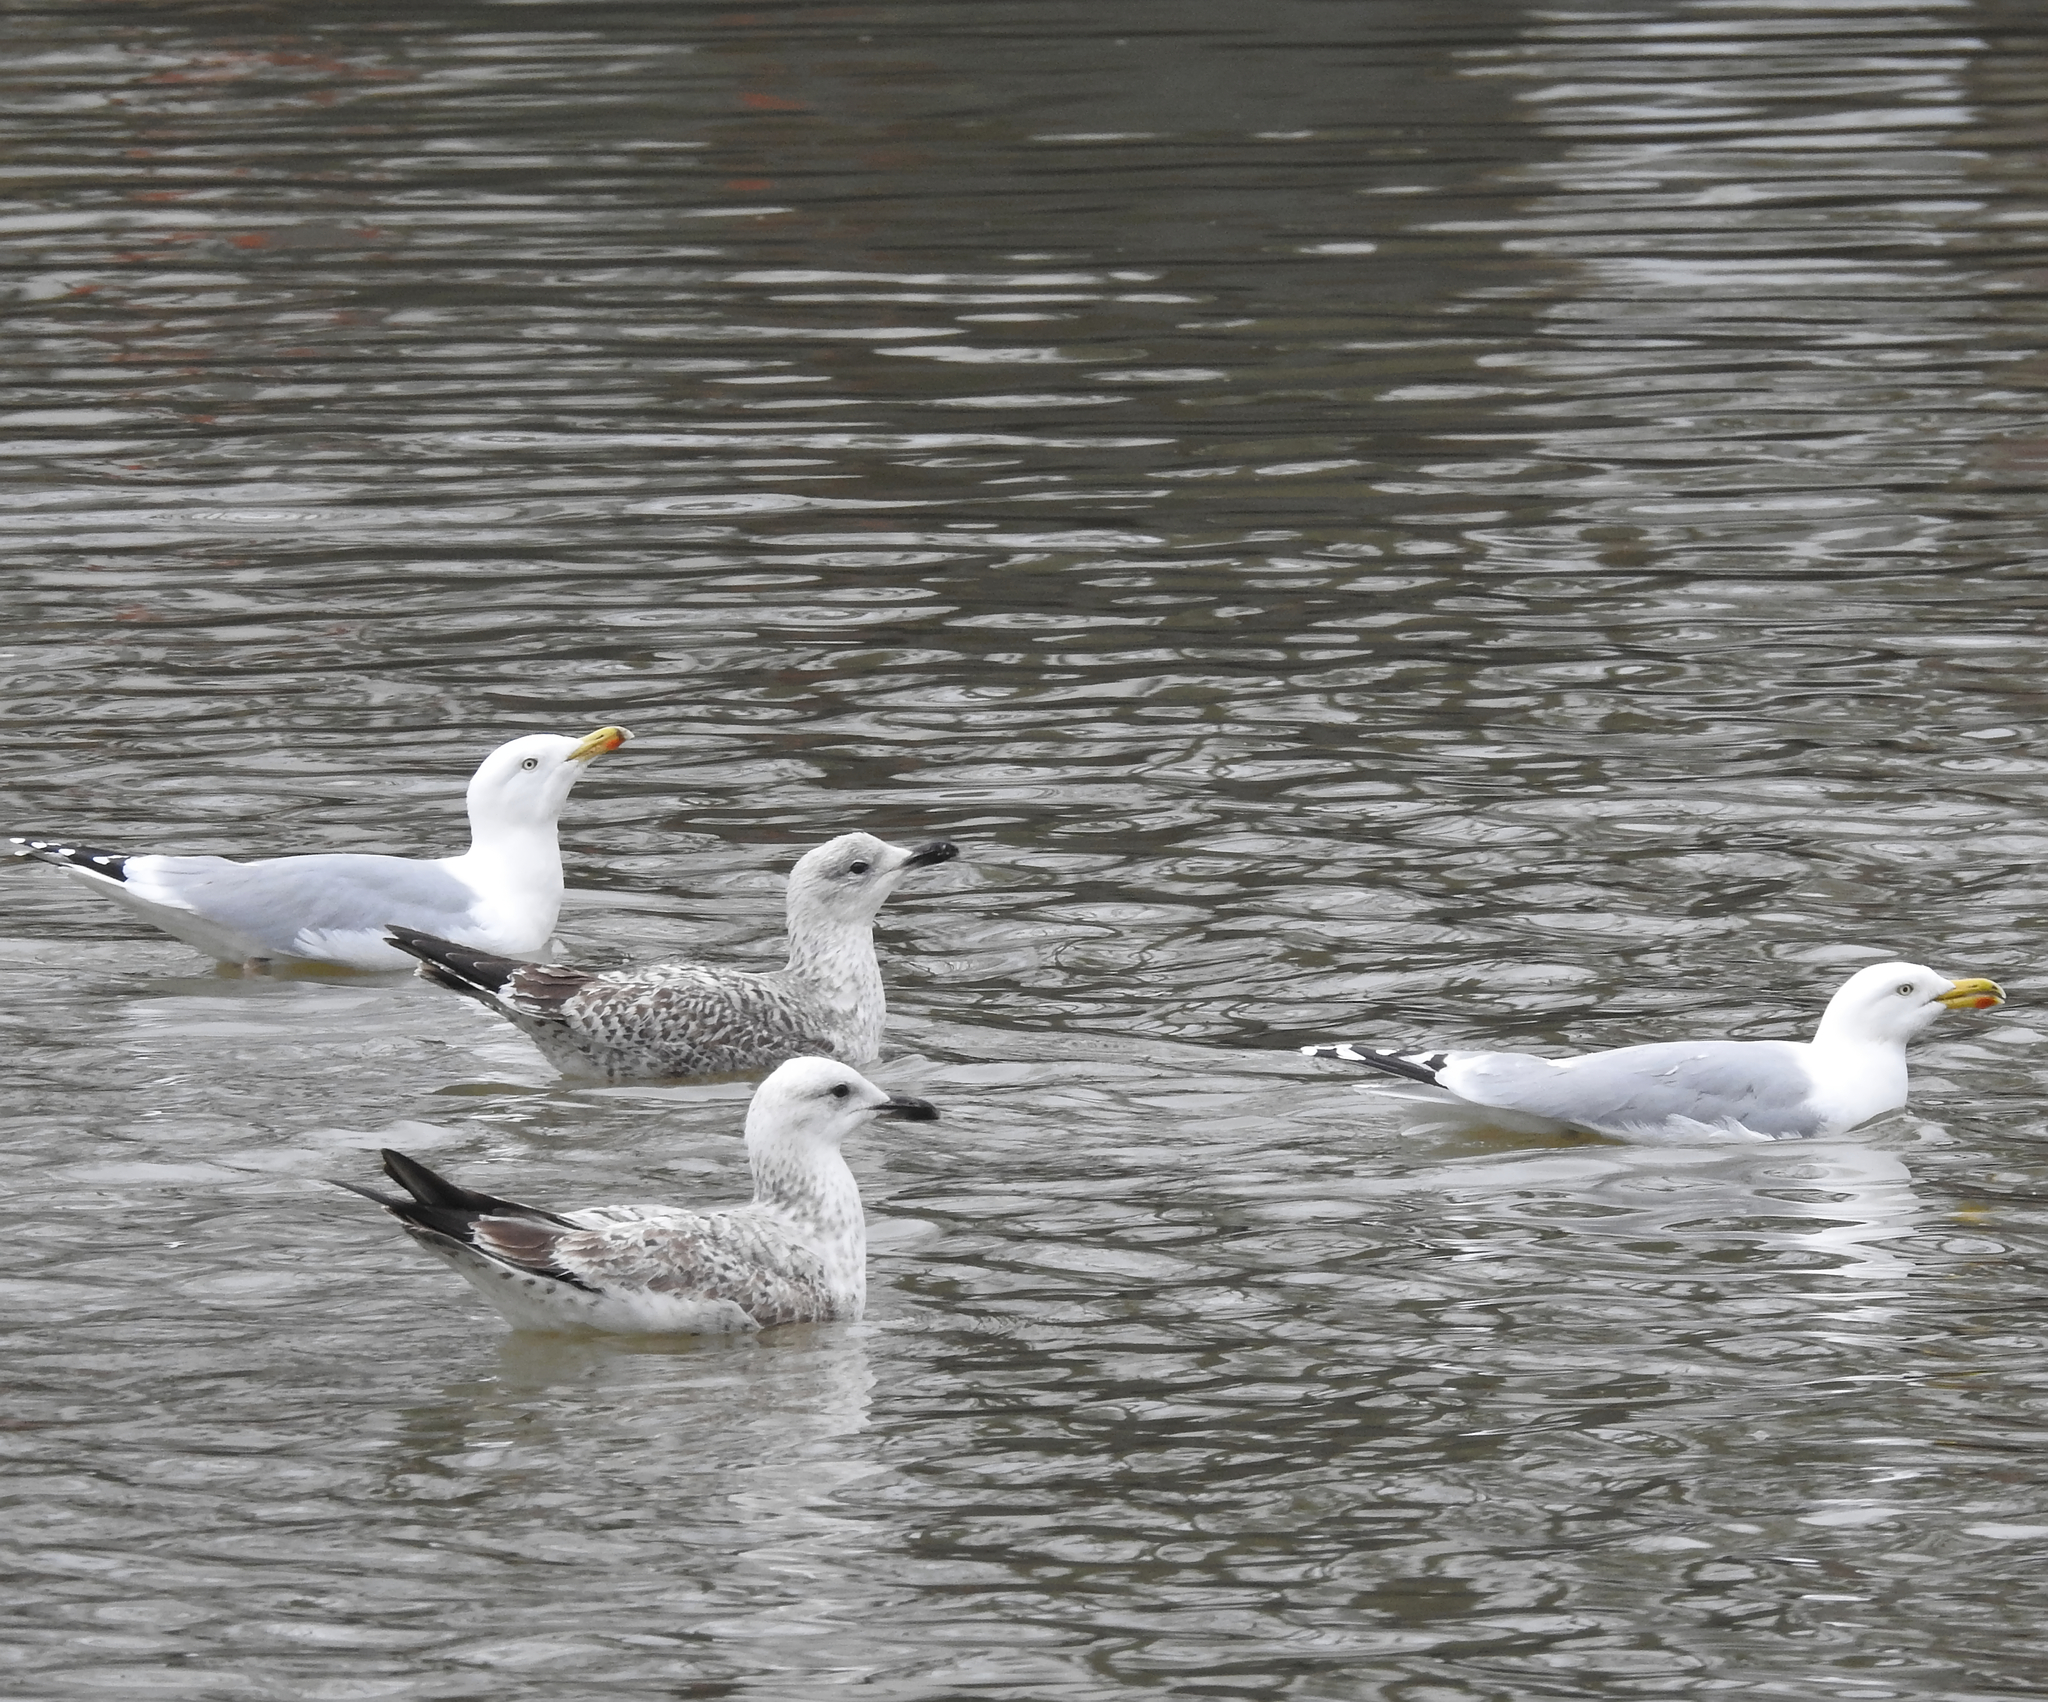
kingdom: Animalia
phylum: Chordata
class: Aves
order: Charadriiformes
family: Laridae
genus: Larus
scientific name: Larus cachinnans
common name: Caspian gull
